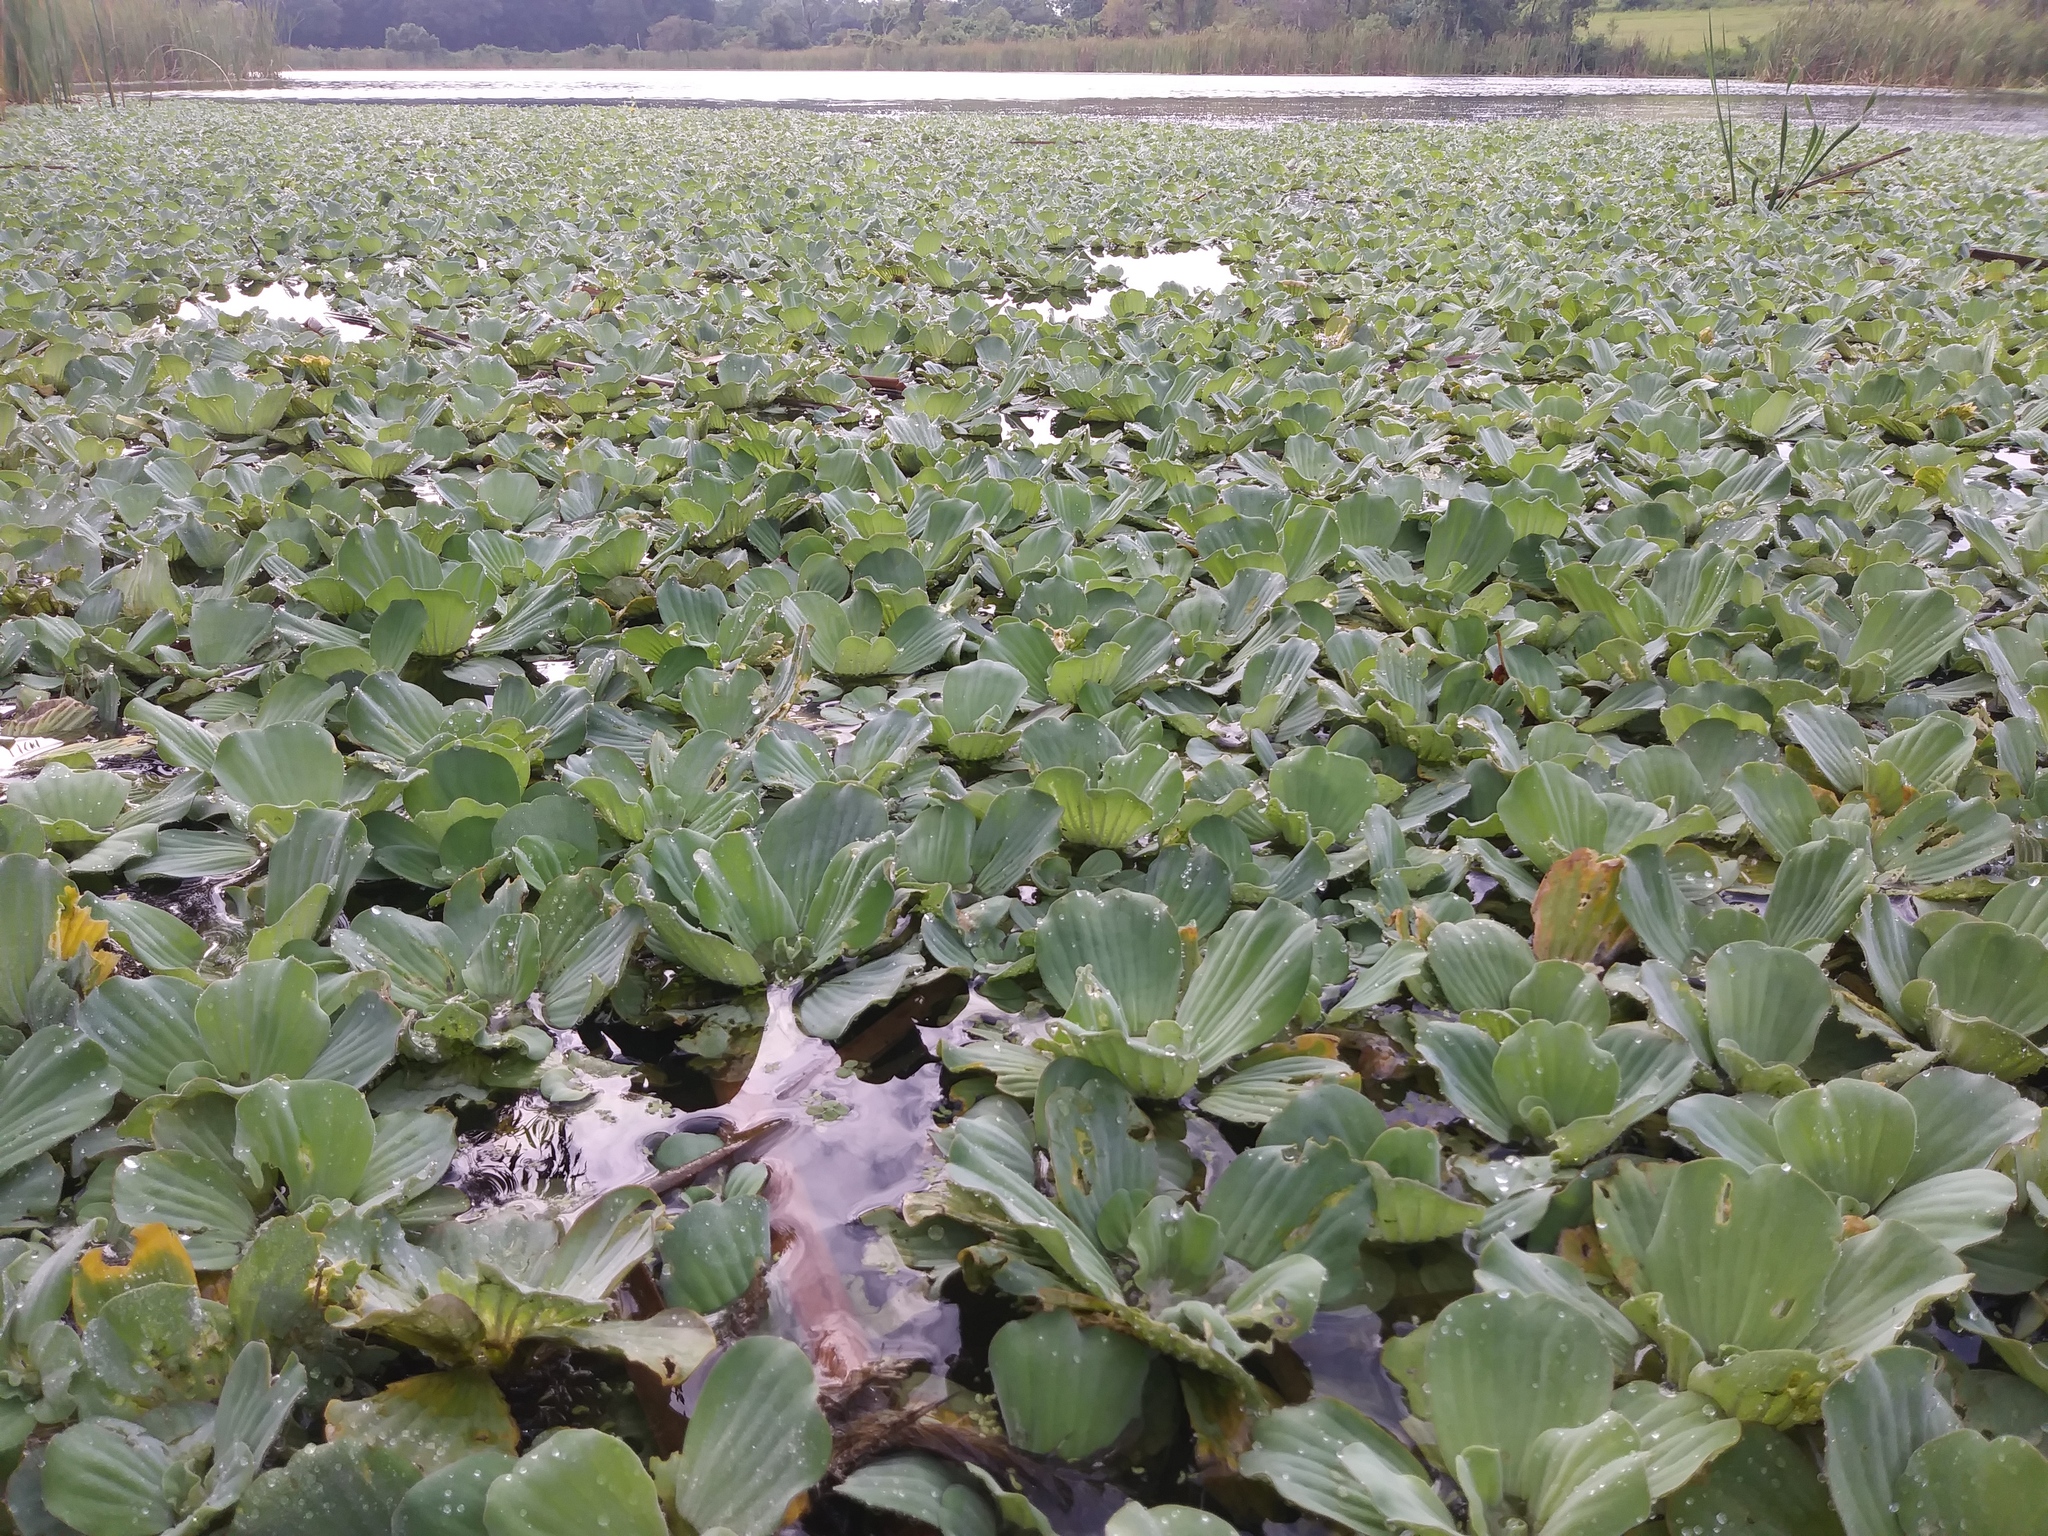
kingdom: Plantae
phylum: Tracheophyta
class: Liliopsida
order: Alismatales
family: Araceae
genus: Pistia
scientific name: Pistia stratiotes
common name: Water lettuce
